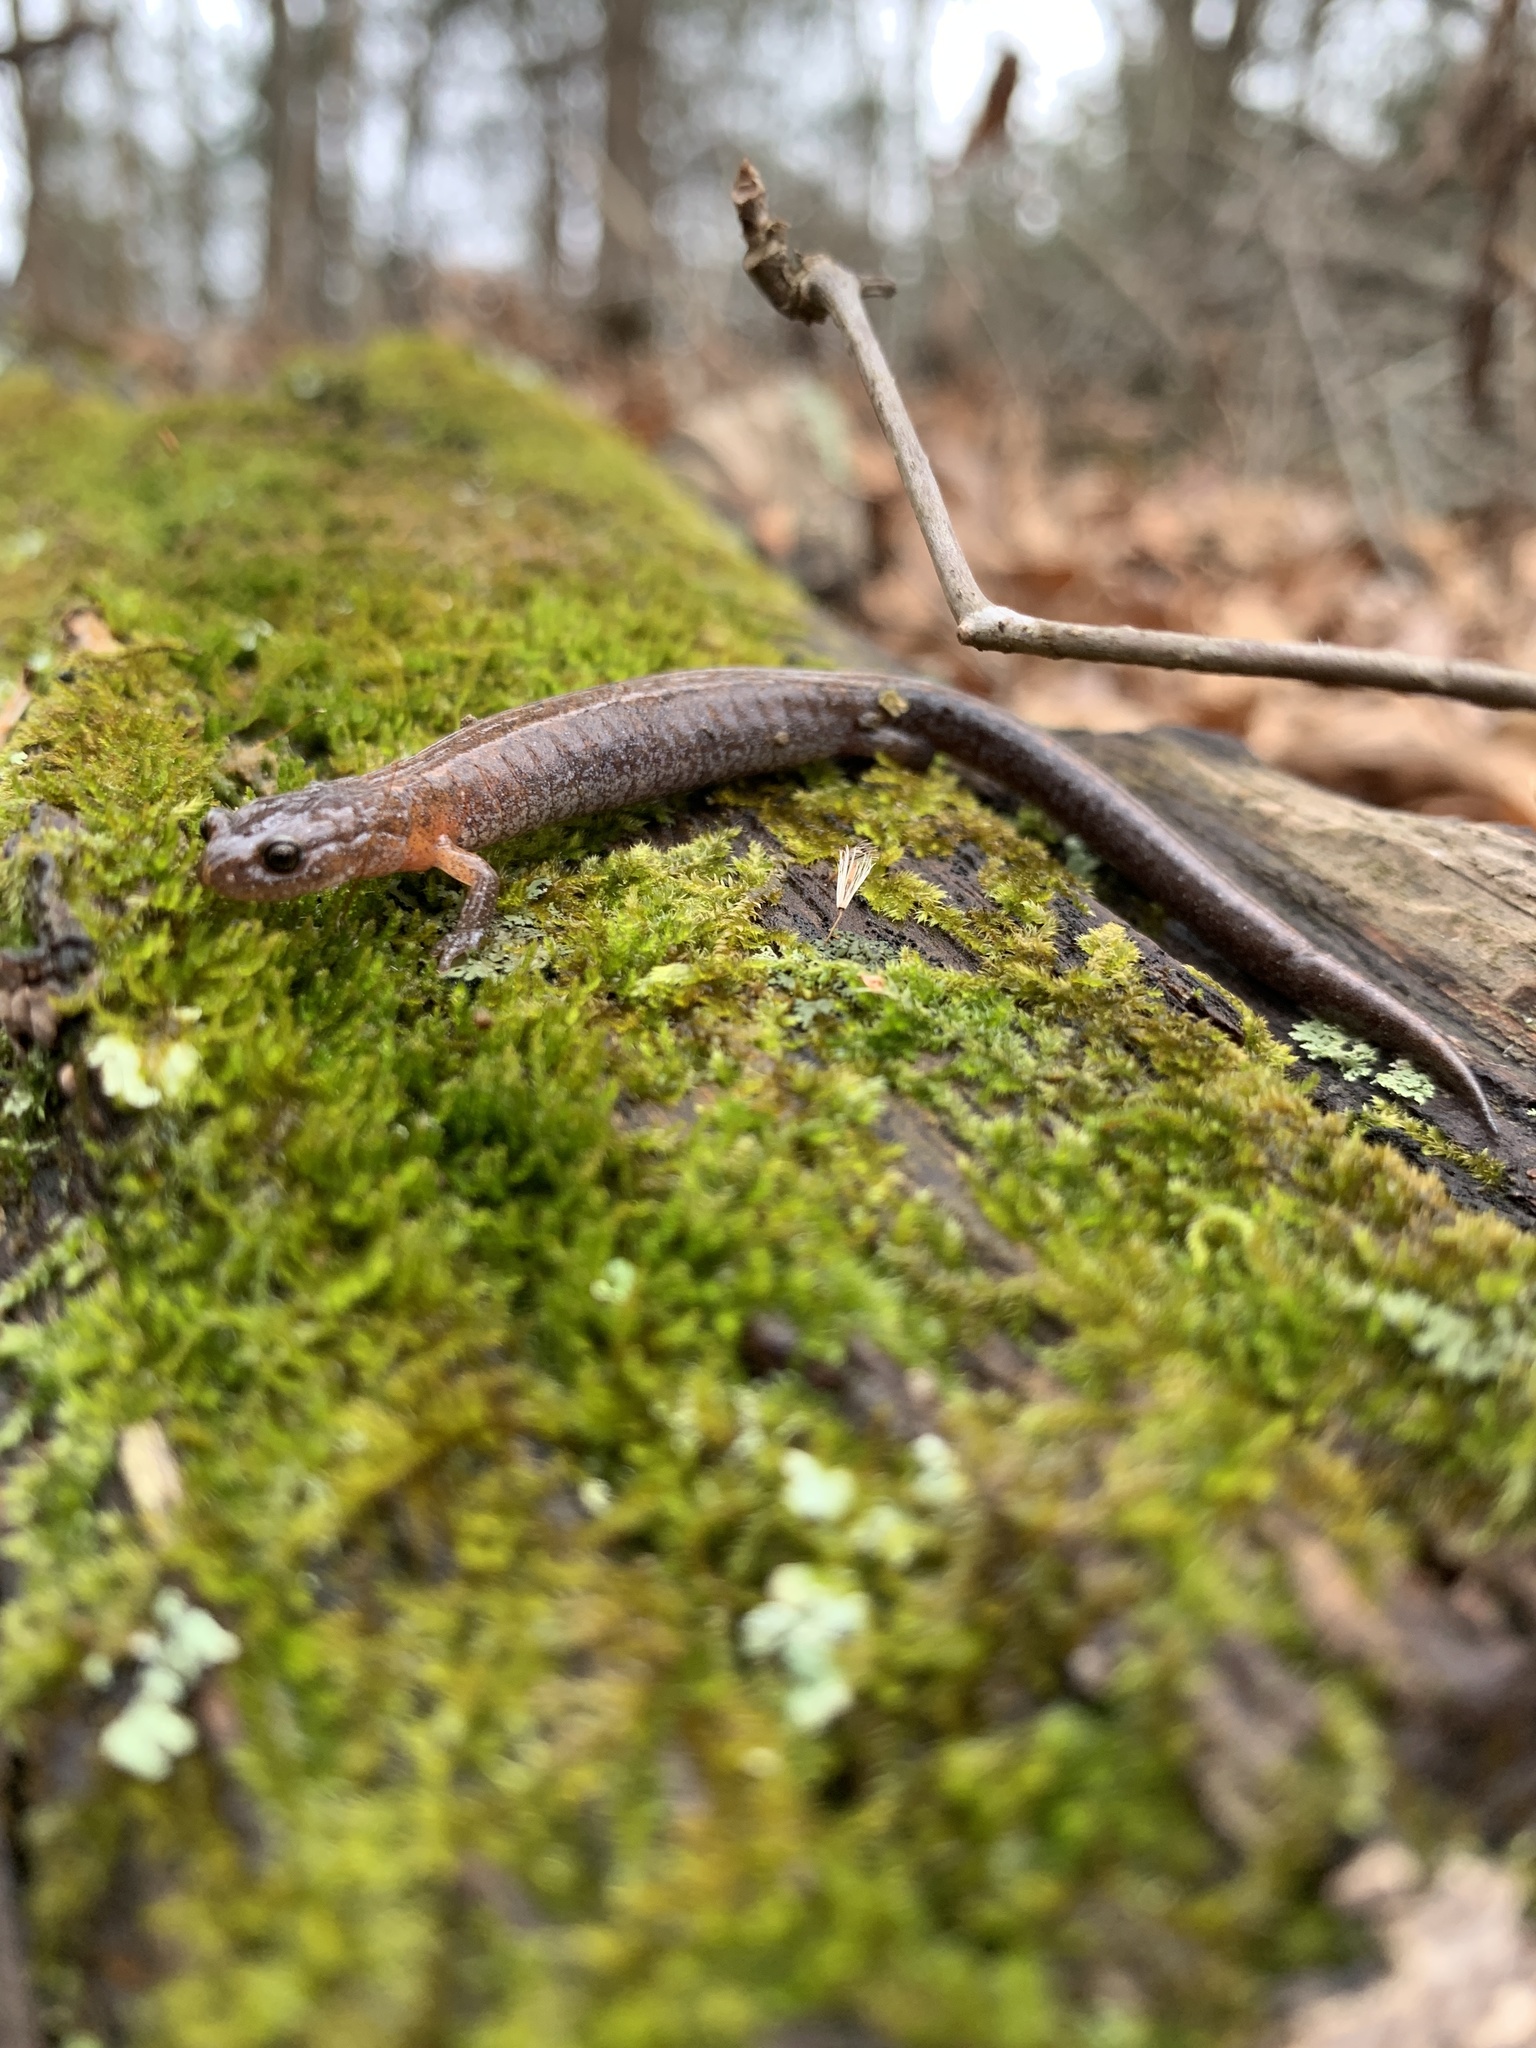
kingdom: Animalia
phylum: Chordata
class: Amphibia
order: Caudata
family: Plethodontidae
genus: Plethodon
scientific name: Plethodon dorsalis
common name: Northern zigzag salamander
